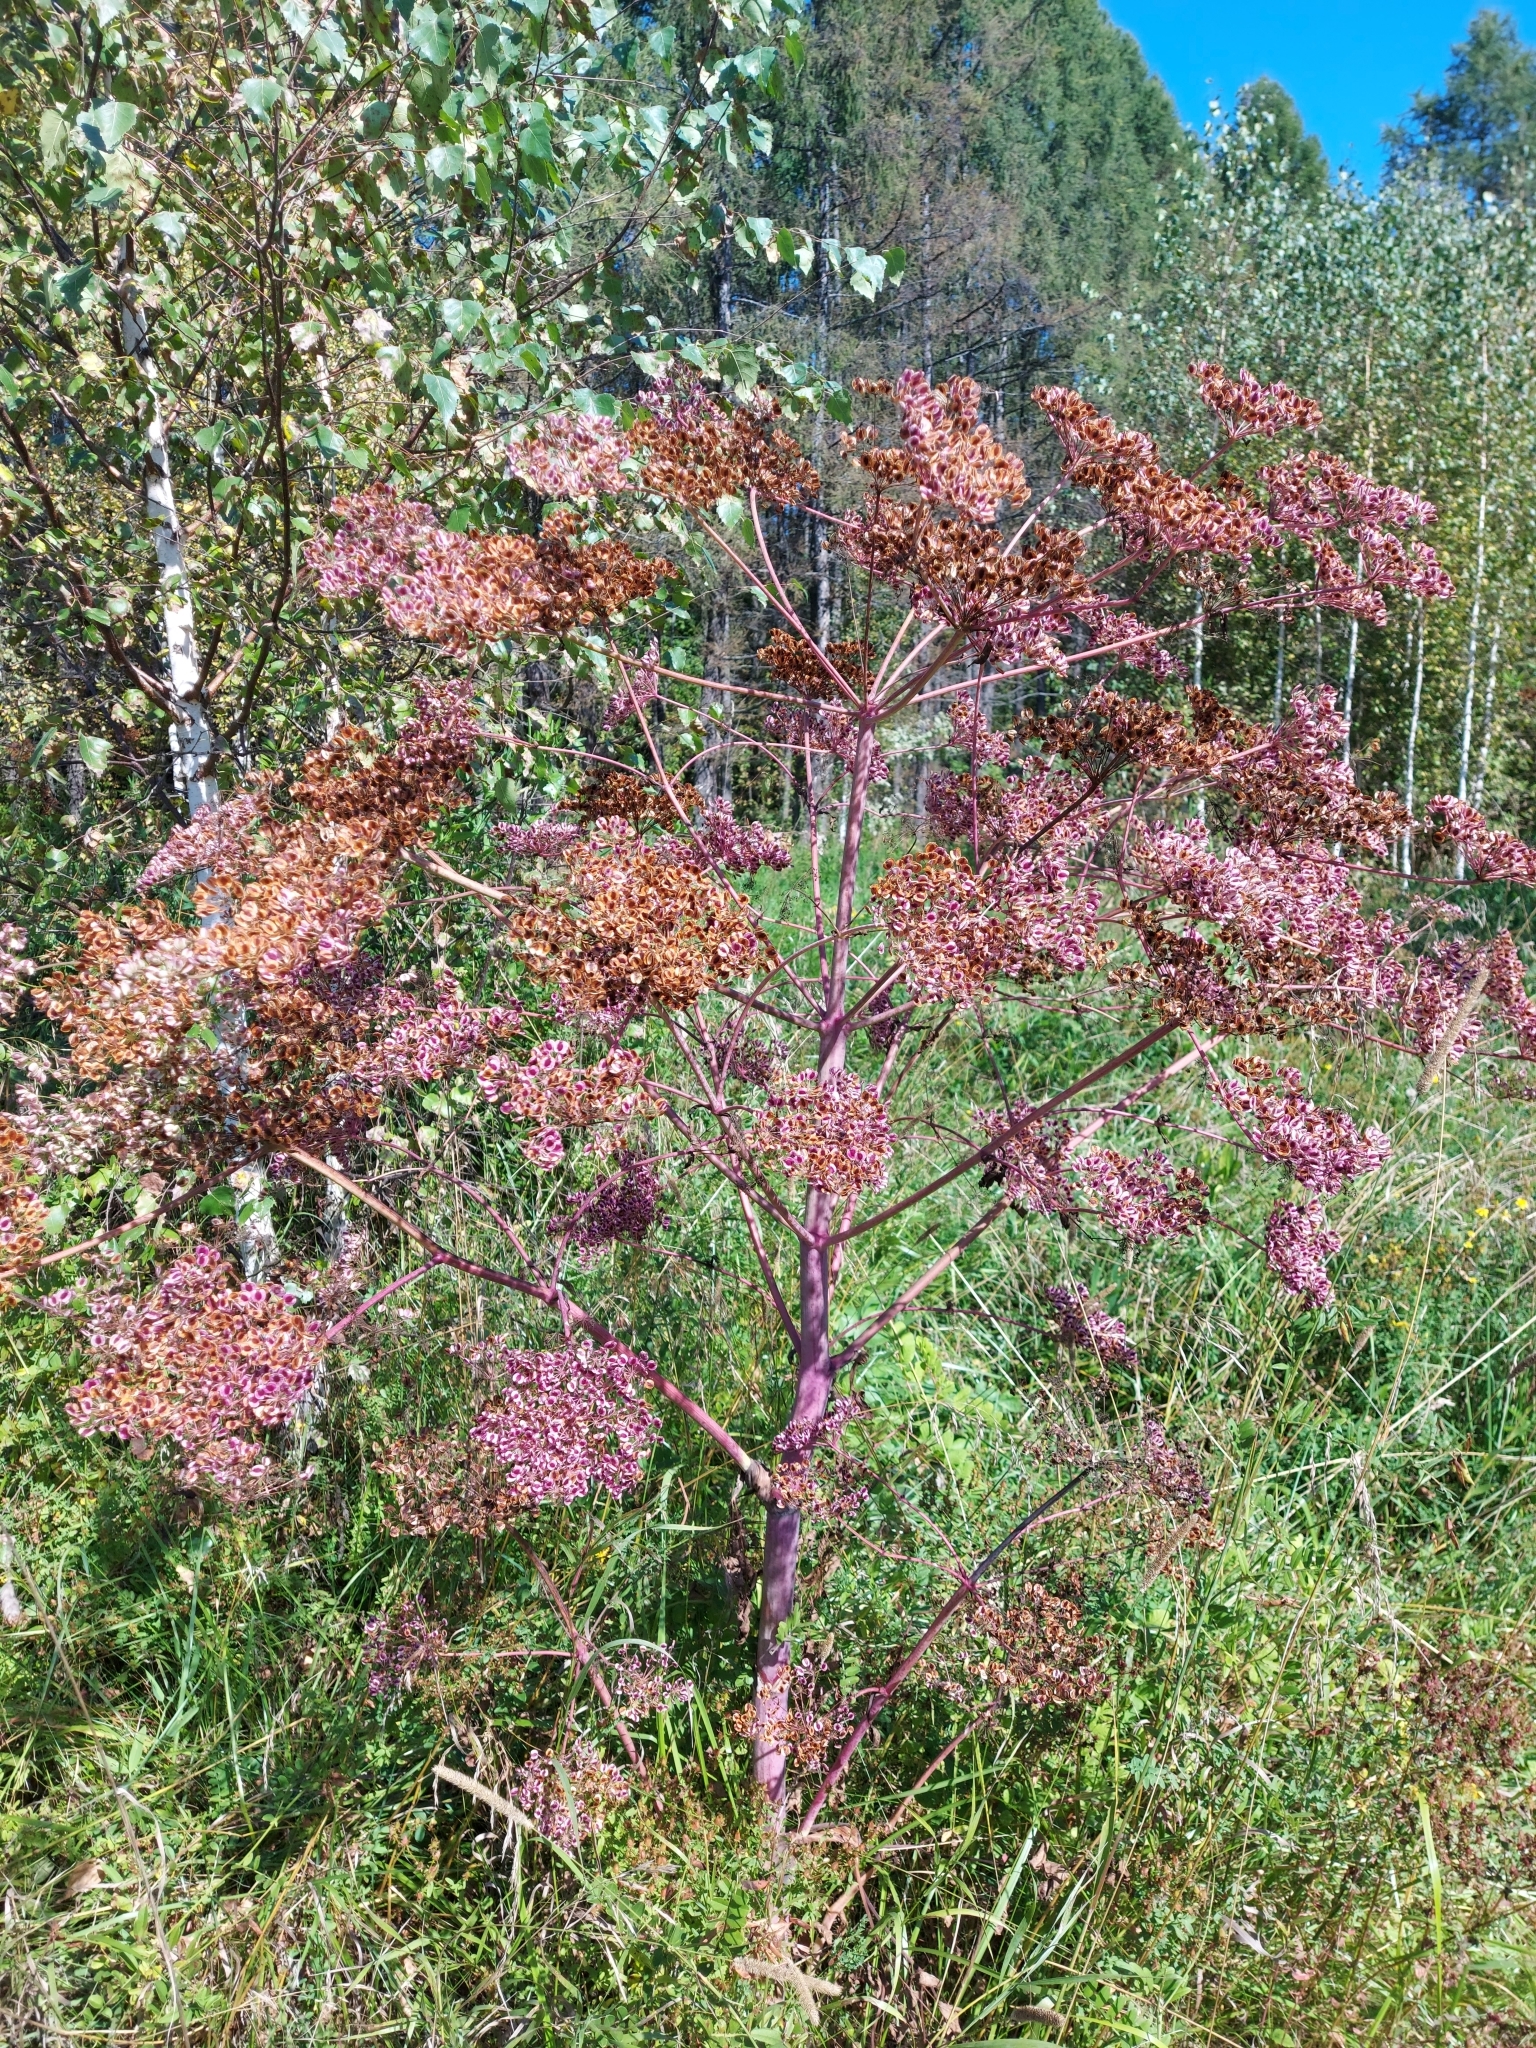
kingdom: Plantae
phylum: Tracheophyta
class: Magnoliopsida
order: Apiales
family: Apiaceae
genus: Xanthogalum
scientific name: Xanthogalum purpurascens
